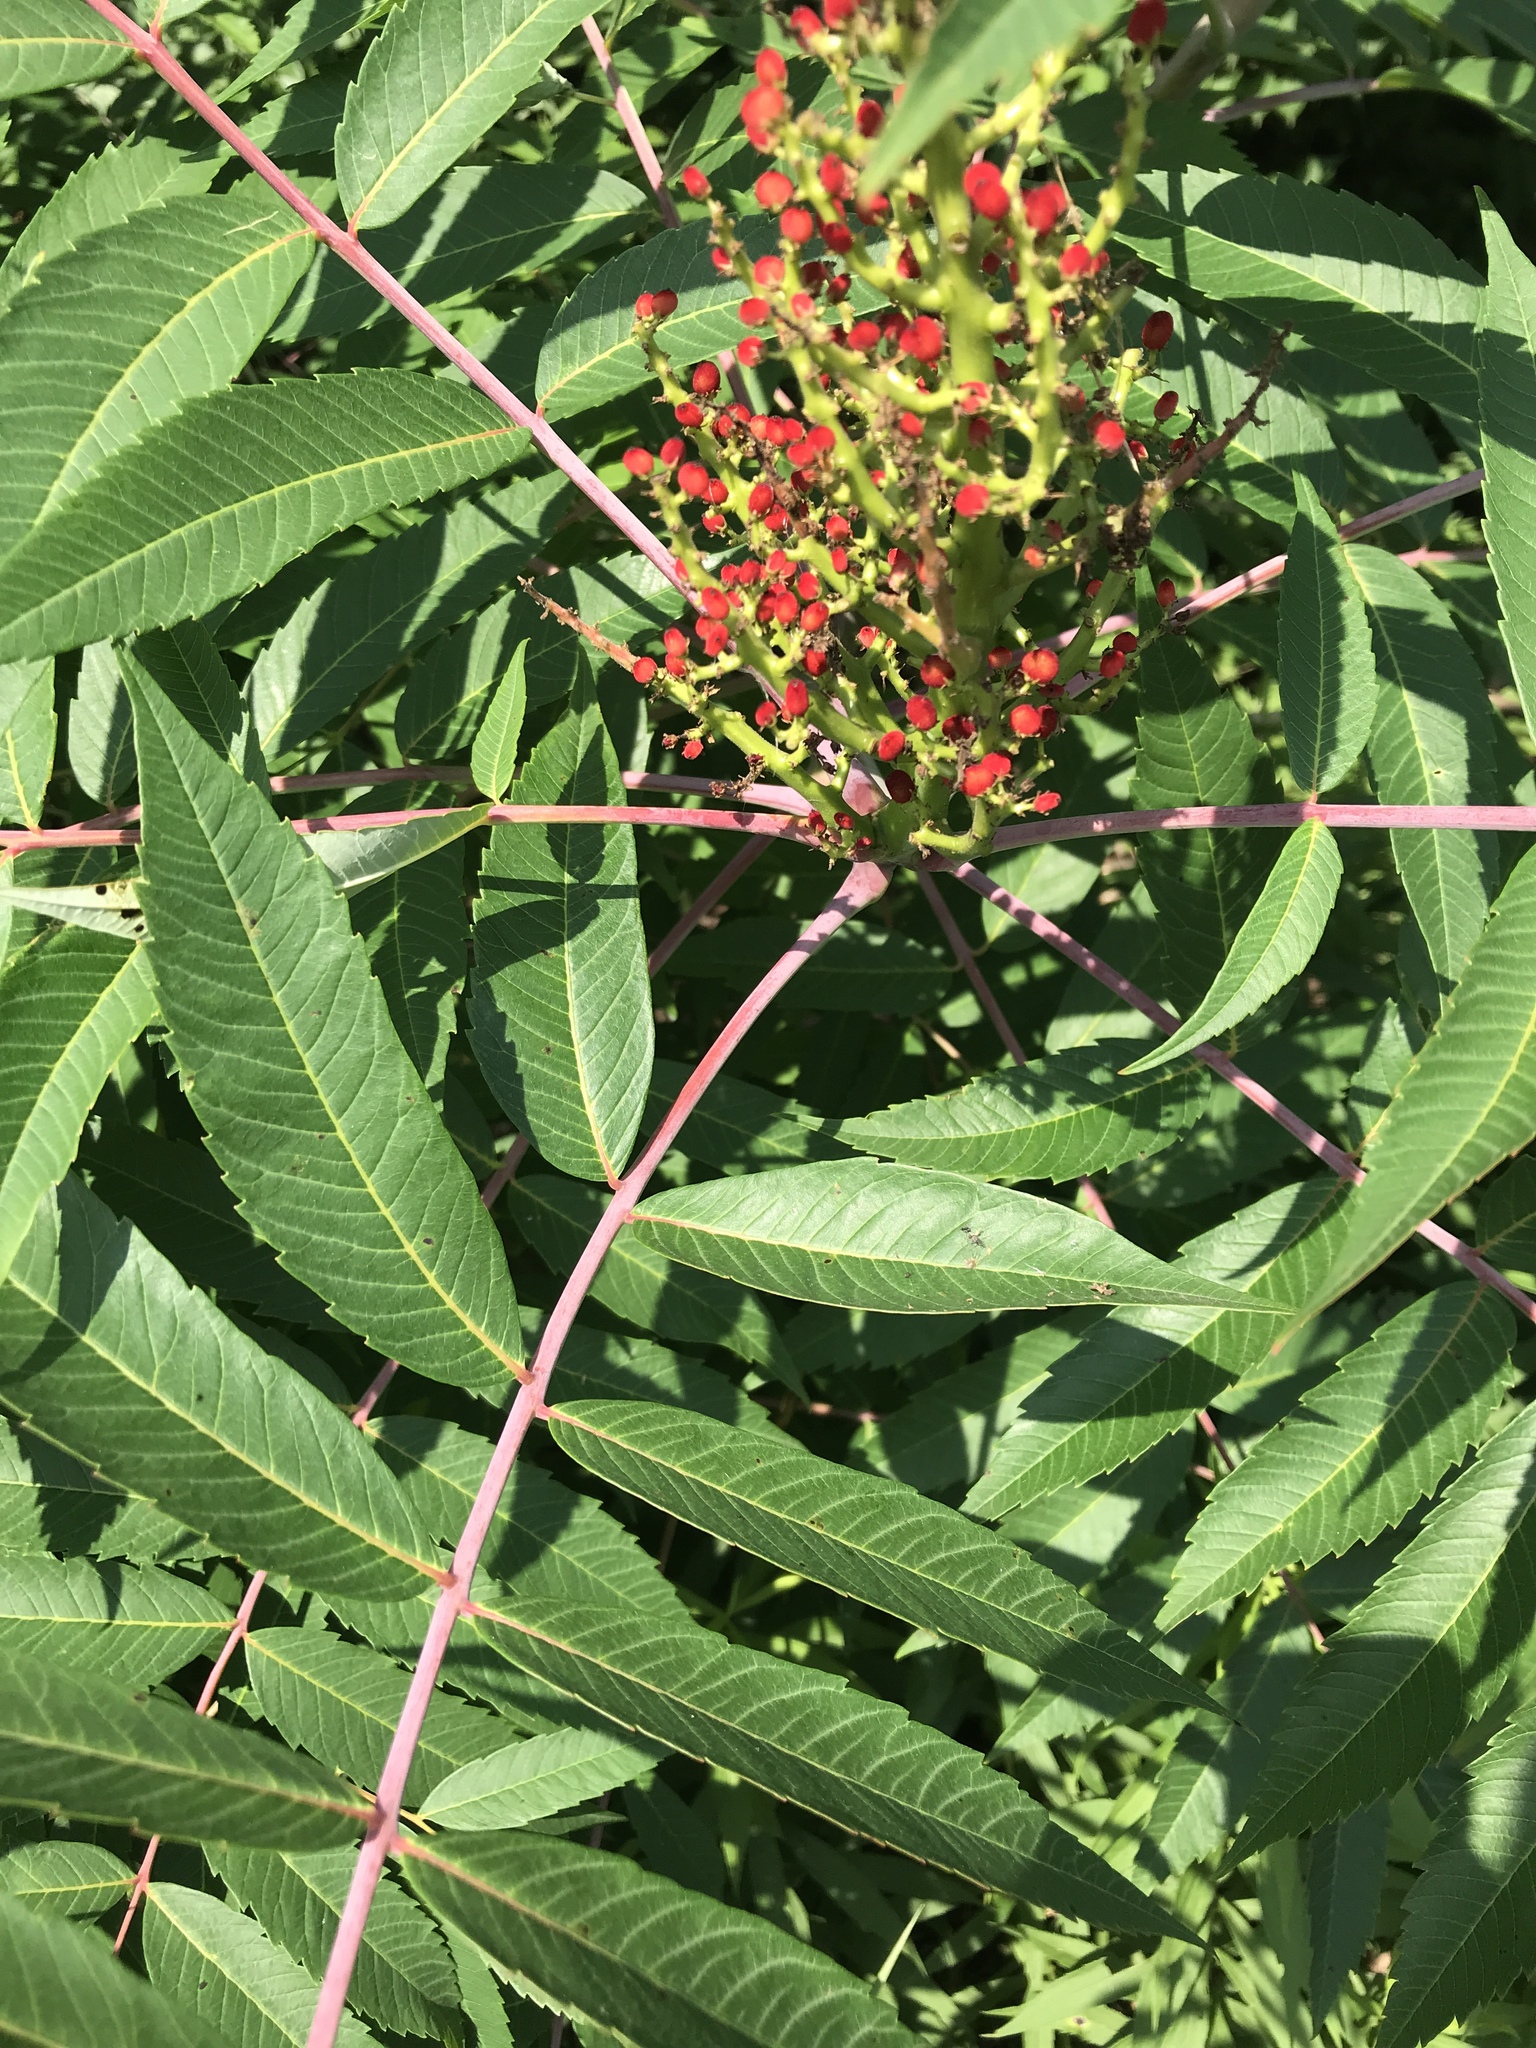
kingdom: Plantae
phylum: Tracheophyta
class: Magnoliopsida
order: Sapindales
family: Anacardiaceae
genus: Rhus
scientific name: Rhus glabra
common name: Scarlet sumac
